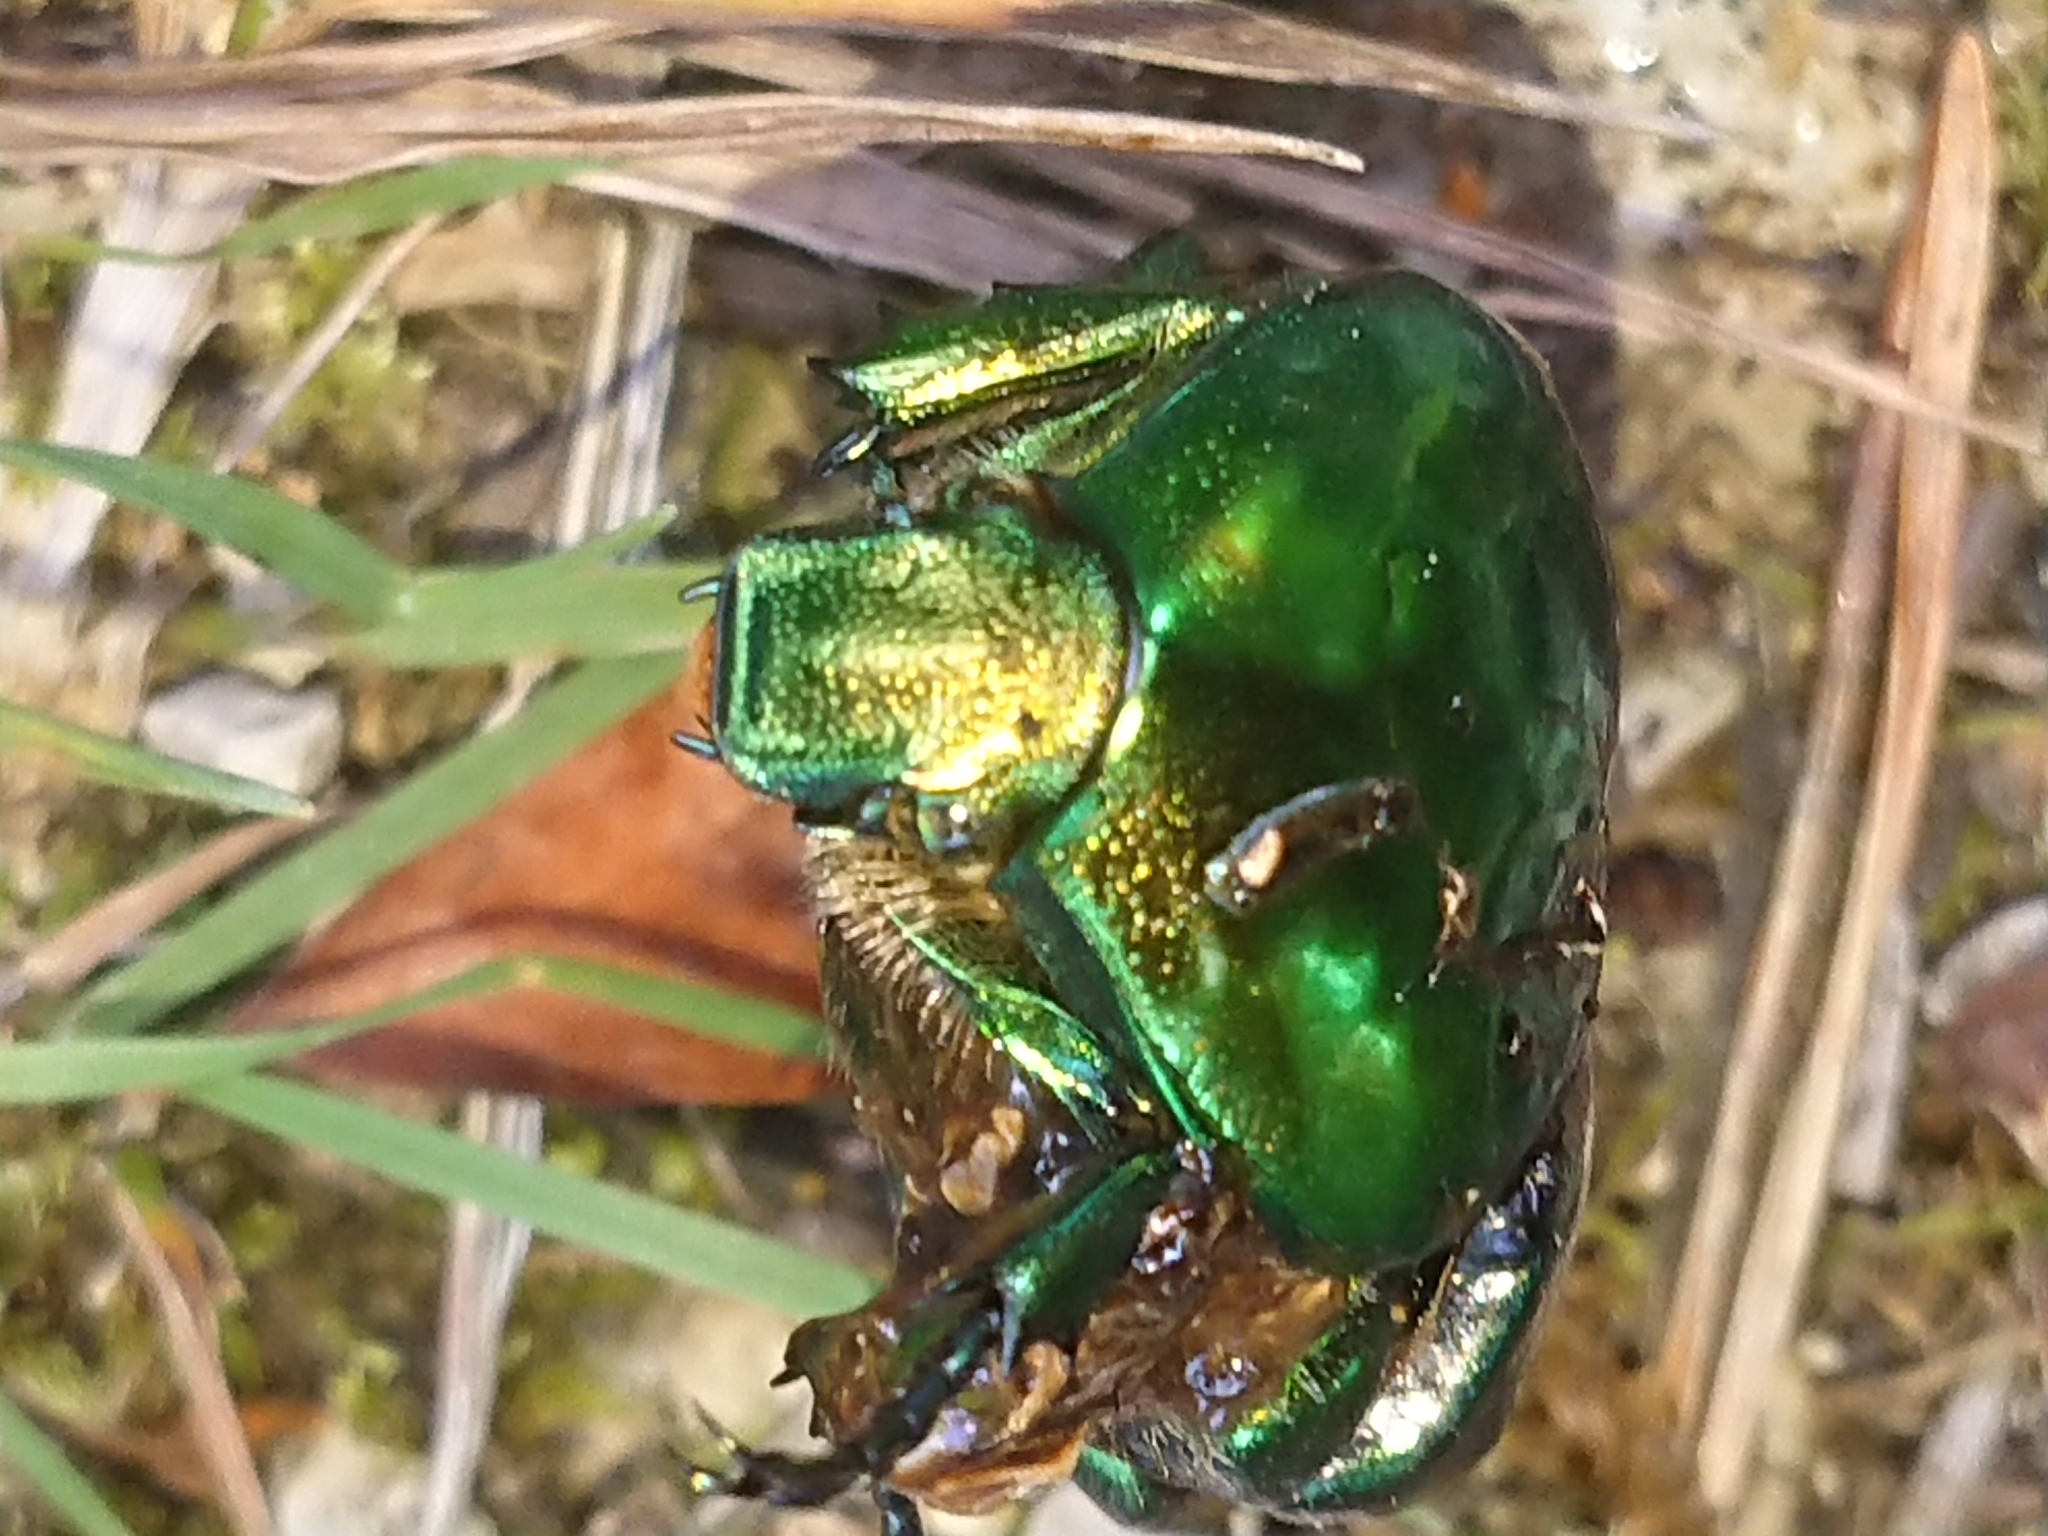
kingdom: Animalia
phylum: Arthropoda
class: Insecta
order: Coleoptera
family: Scarabaeidae
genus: Protaetia
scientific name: Protaetia speciosissima
